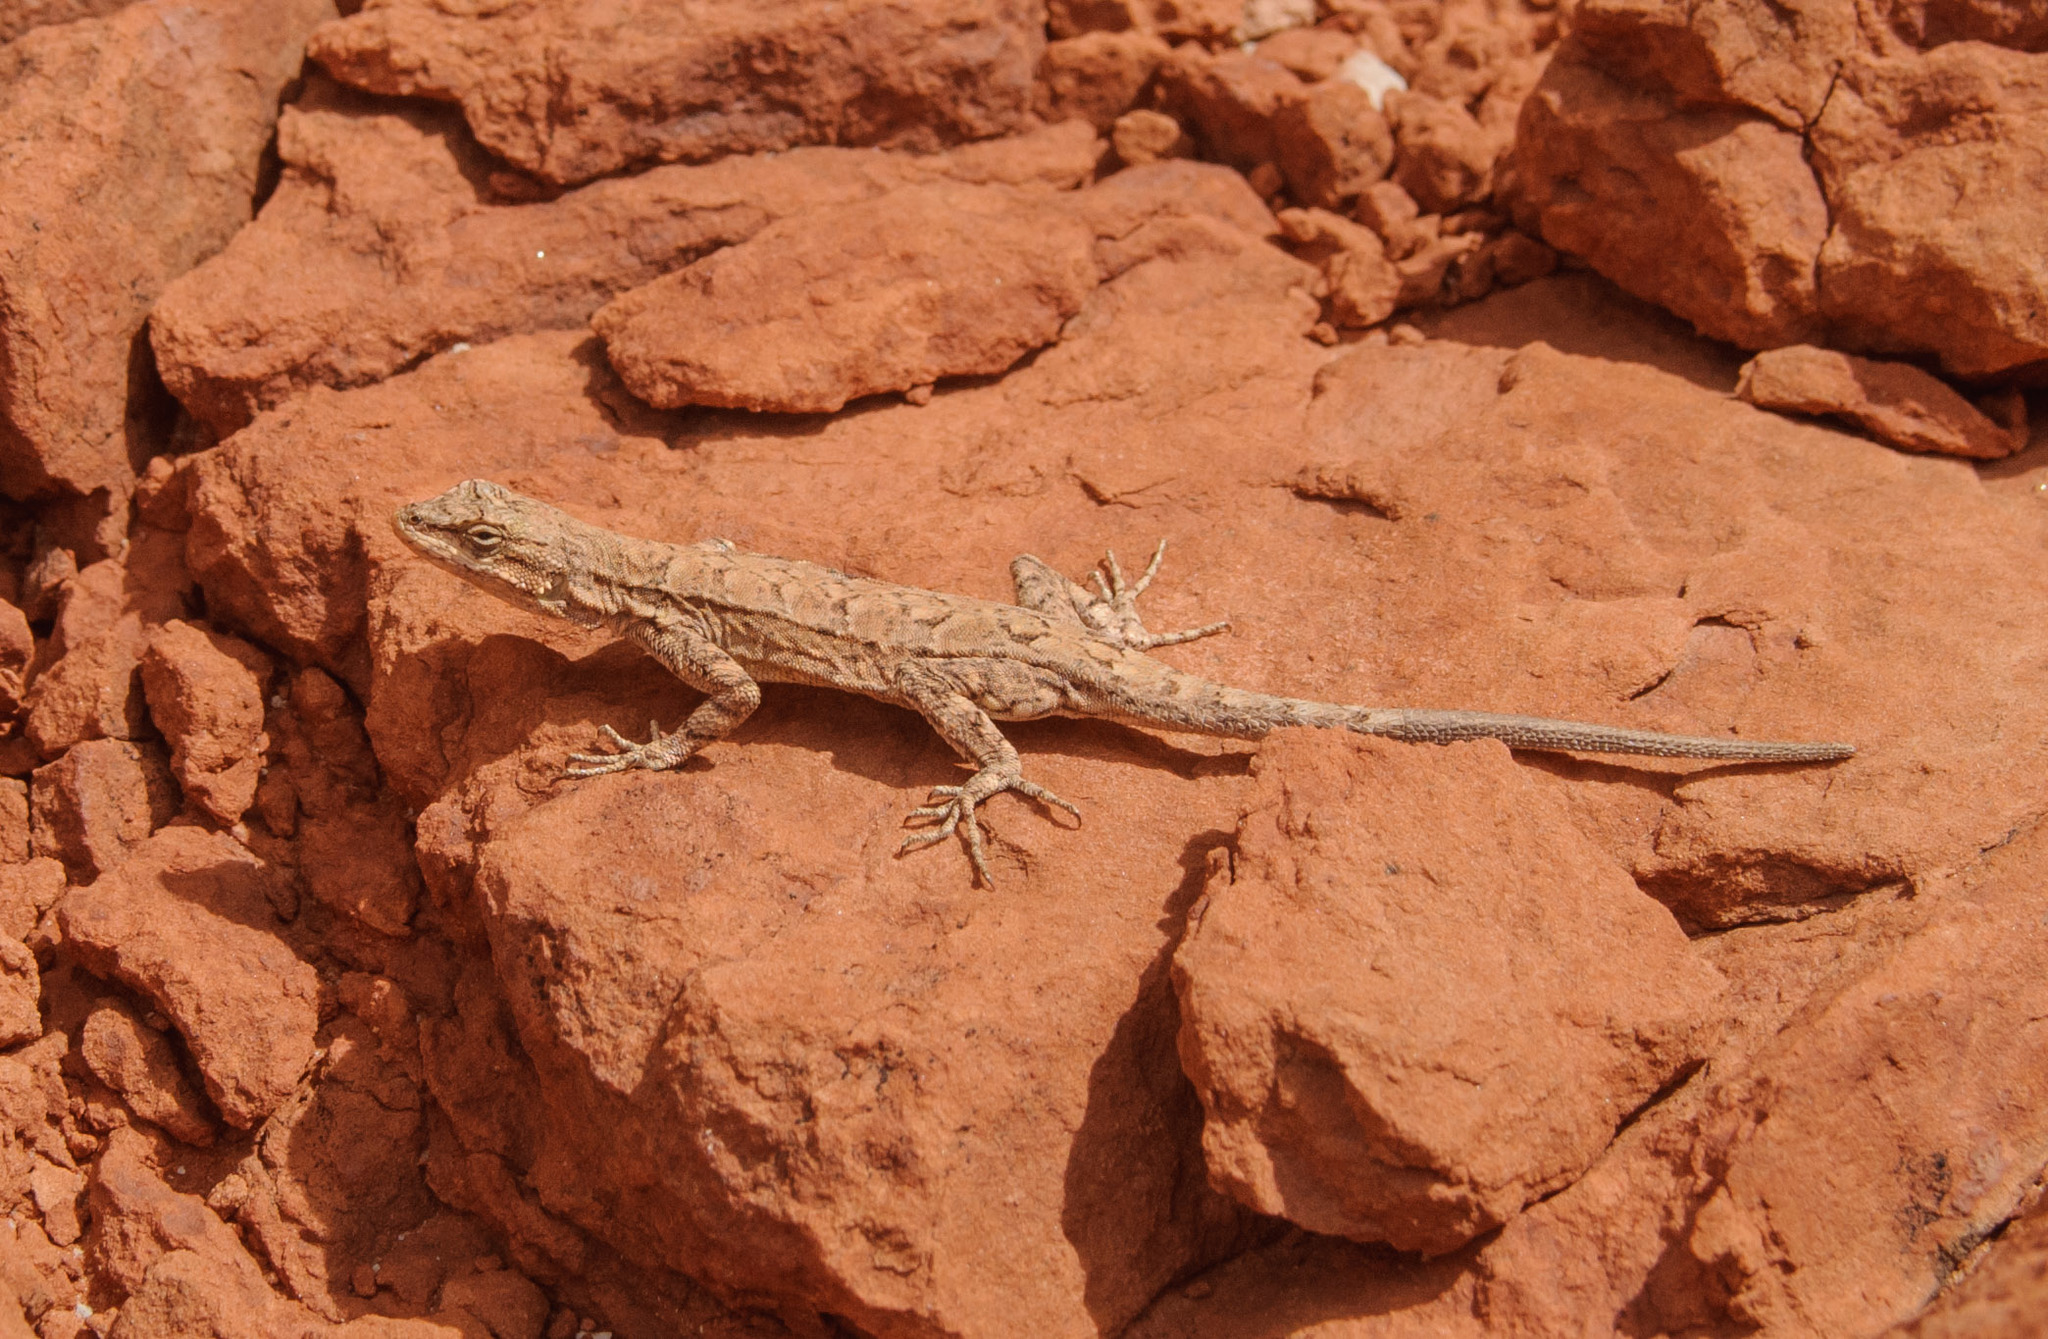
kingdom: Animalia
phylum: Chordata
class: Squamata
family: Phrynosomatidae
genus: Urosaurus
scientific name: Urosaurus ornatus
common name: Ornate tree lizard
